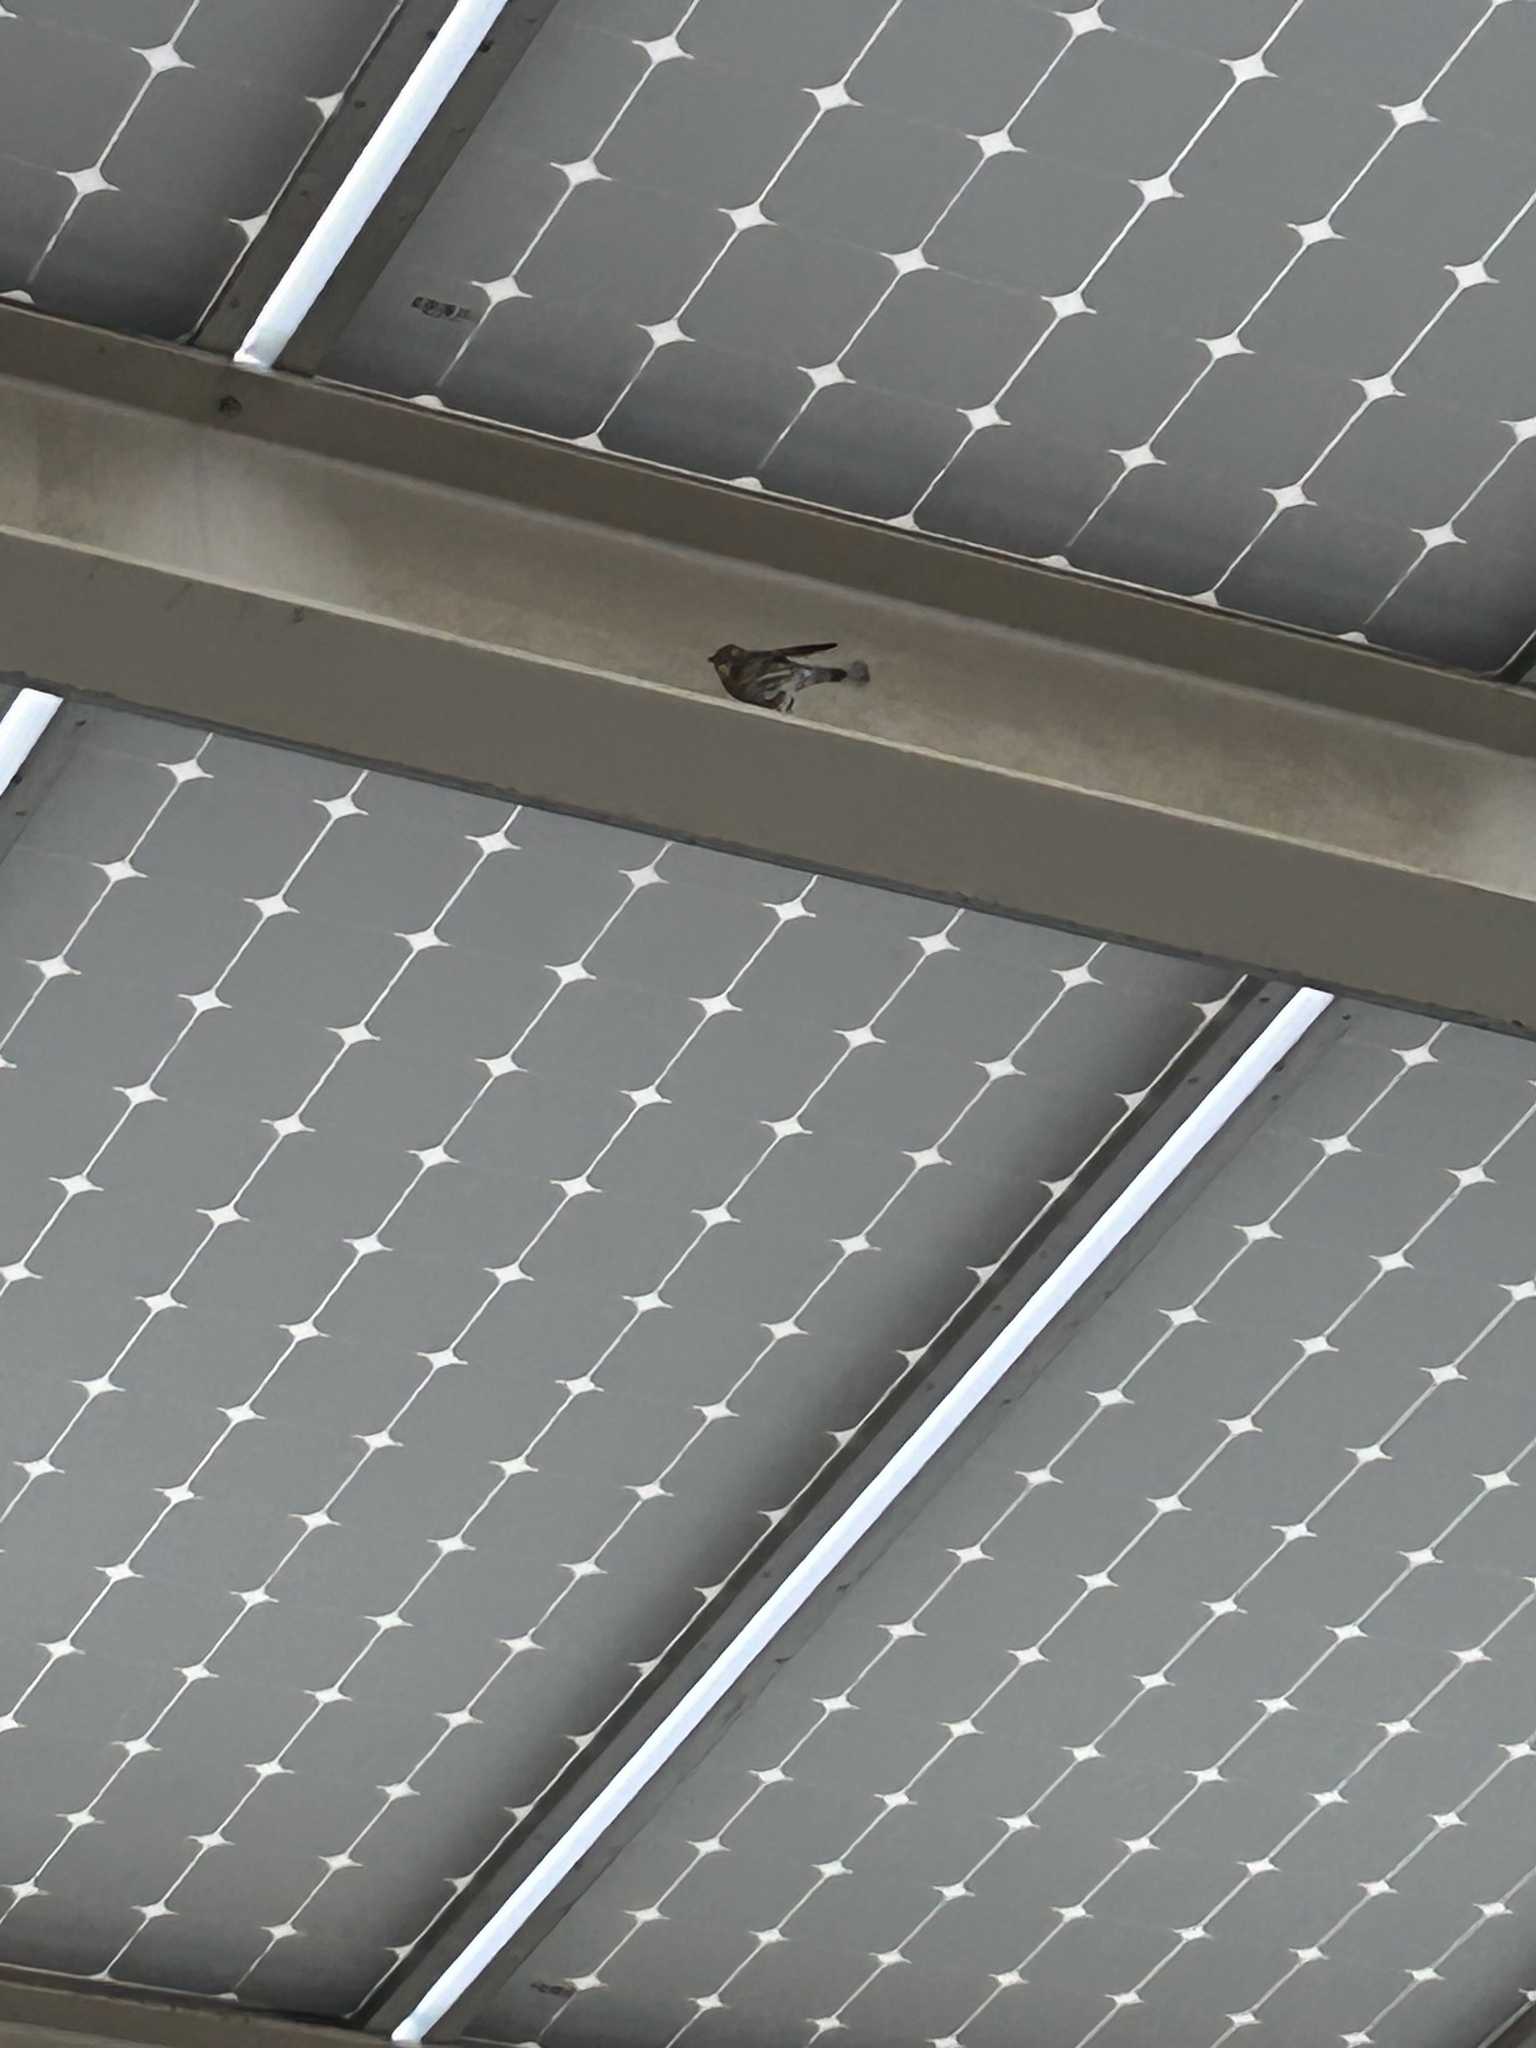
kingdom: Animalia
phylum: Chordata
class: Aves
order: Passeriformes
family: Parulidae
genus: Setophaga
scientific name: Setophaga coronata
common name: Myrtle warbler
